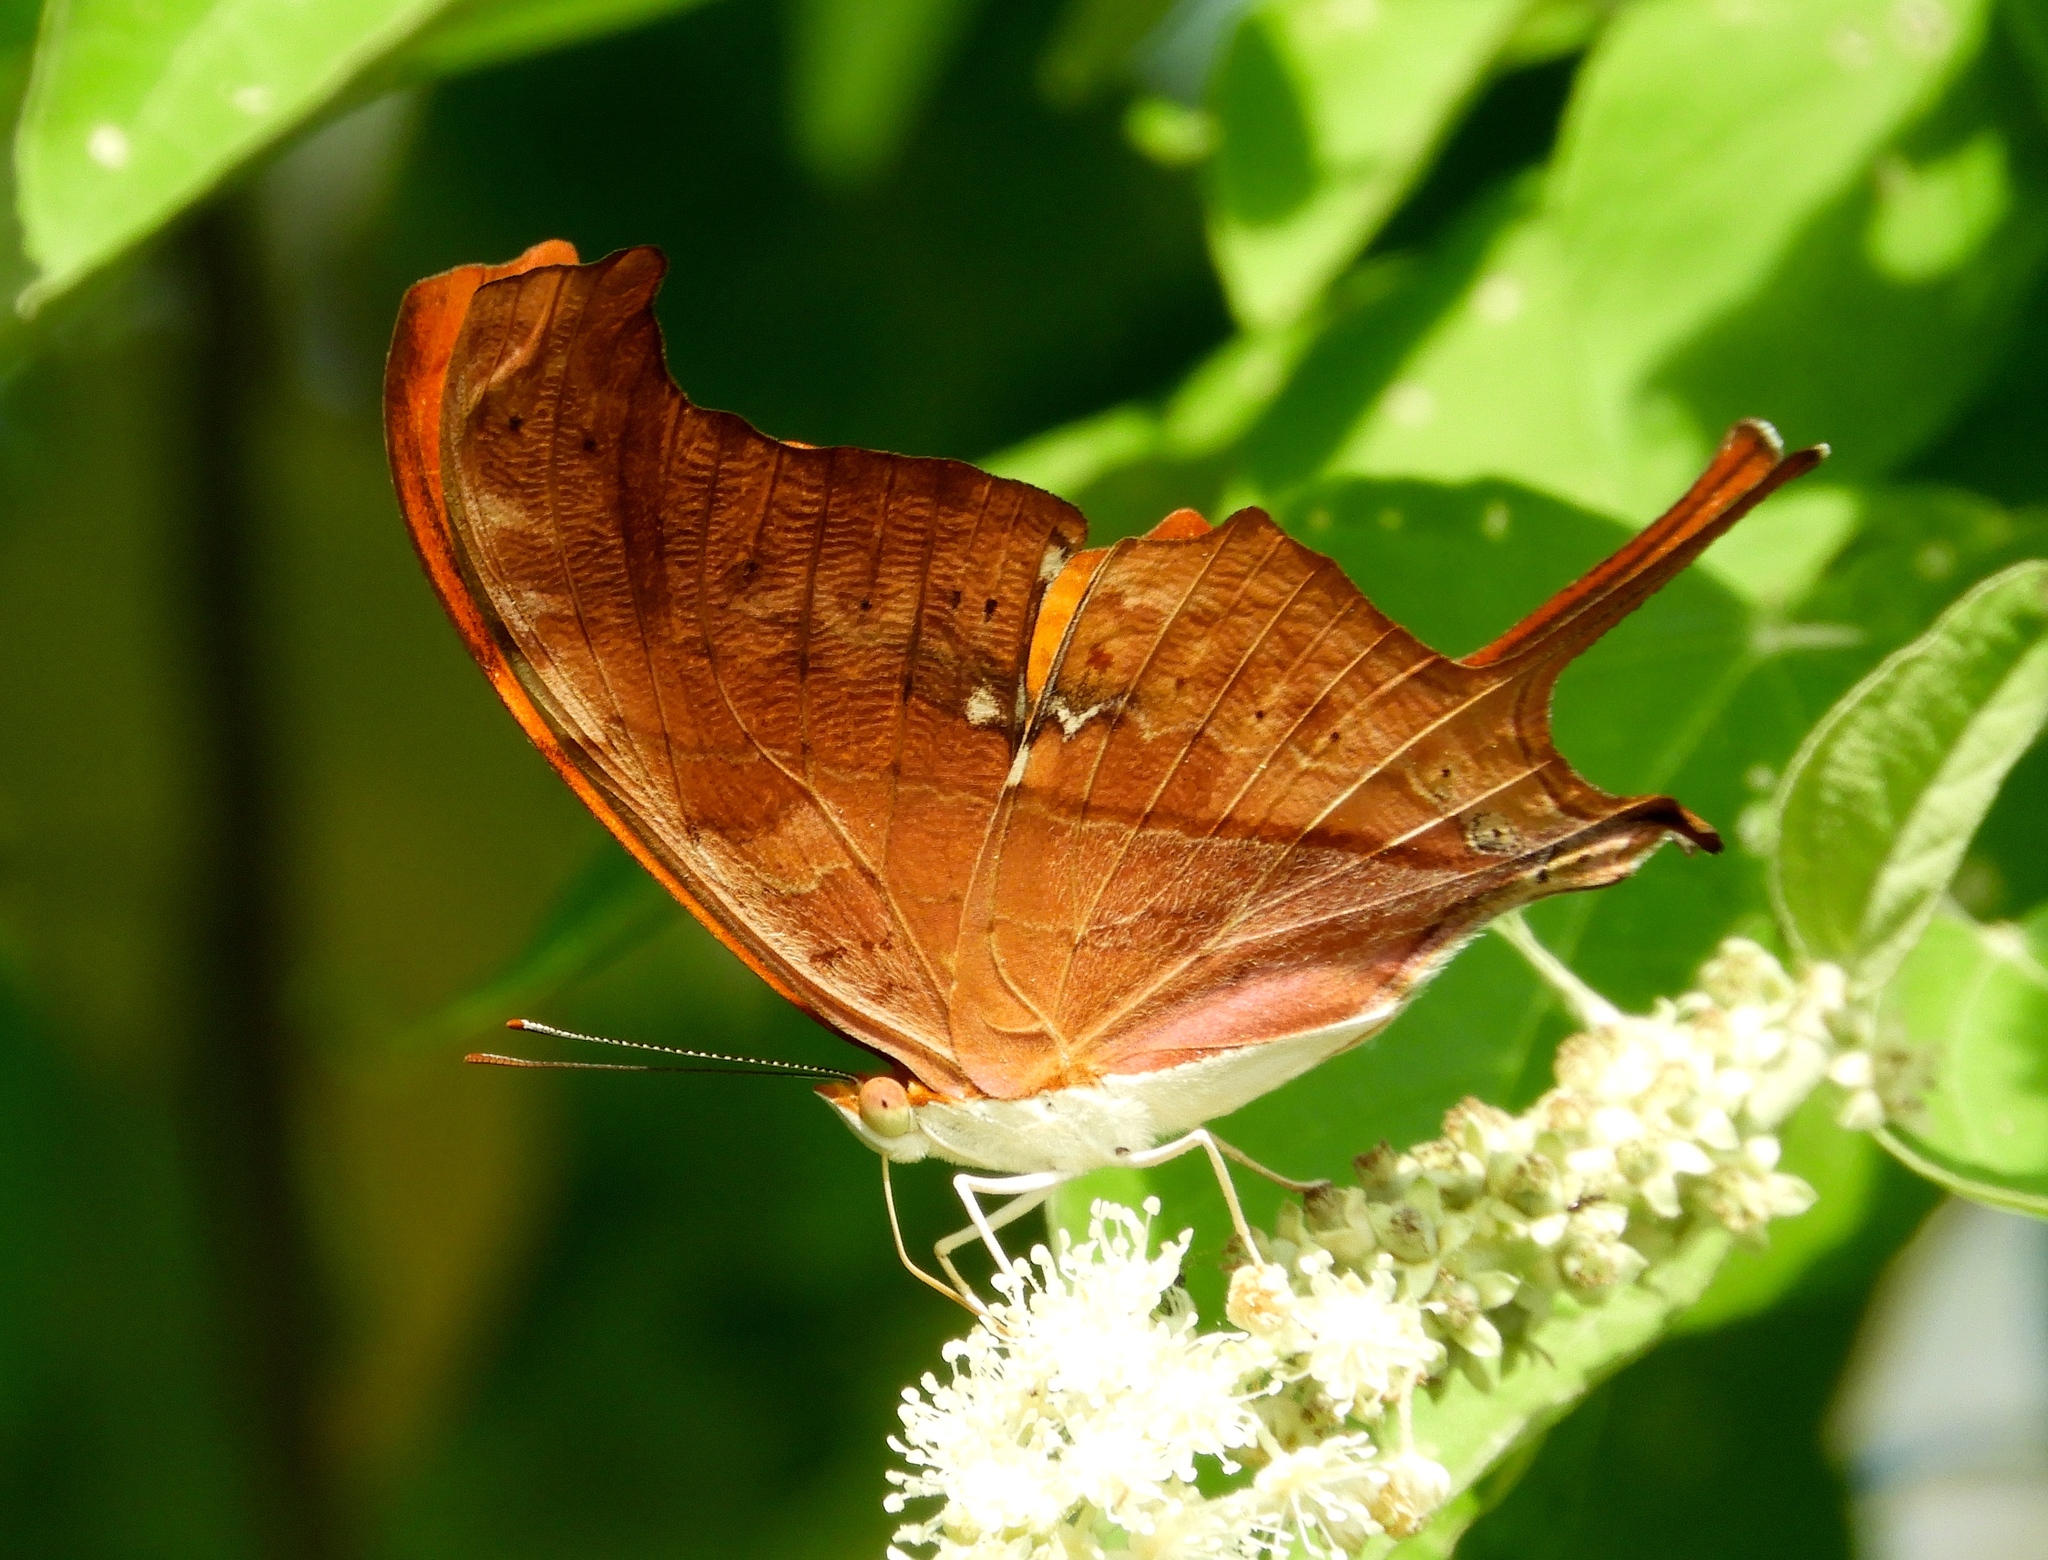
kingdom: Animalia
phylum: Arthropoda
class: Insecta
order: Lepidoptera
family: Nymphalidae
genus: Marpesia
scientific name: Marpesia petreus
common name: Red dagger wing
